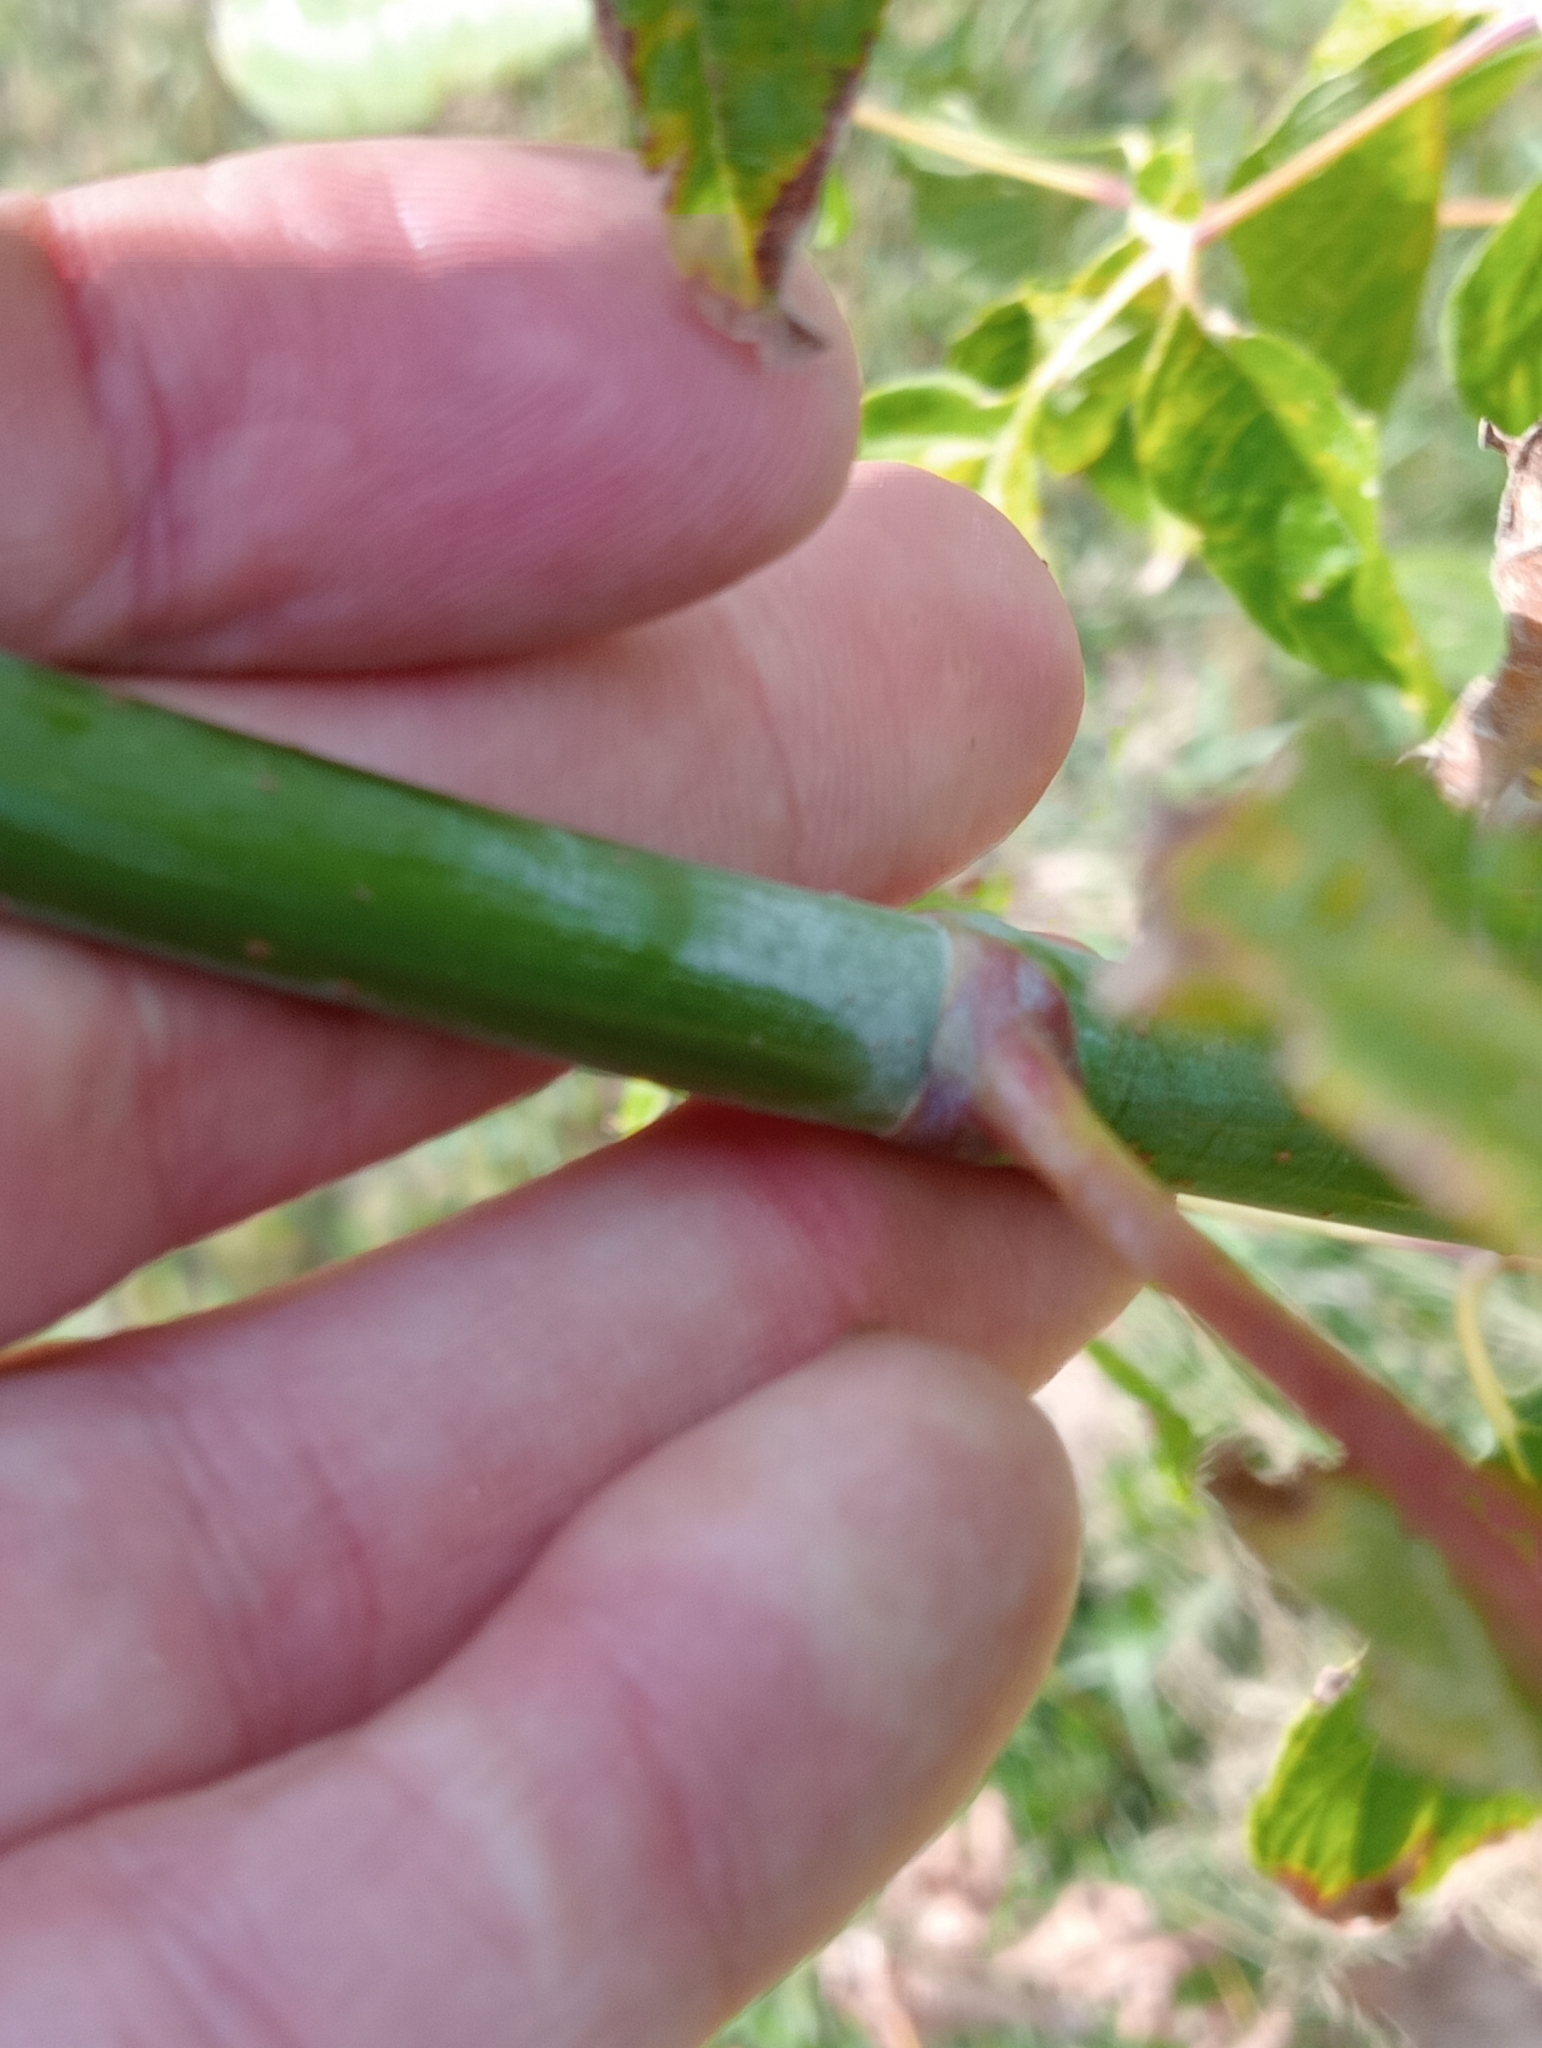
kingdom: Plantae
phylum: Tracheophyta
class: Magnoliopsida
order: Sapindales
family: Sapindaceae
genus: Acer
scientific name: Acer negundo
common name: Ashleaf maple
